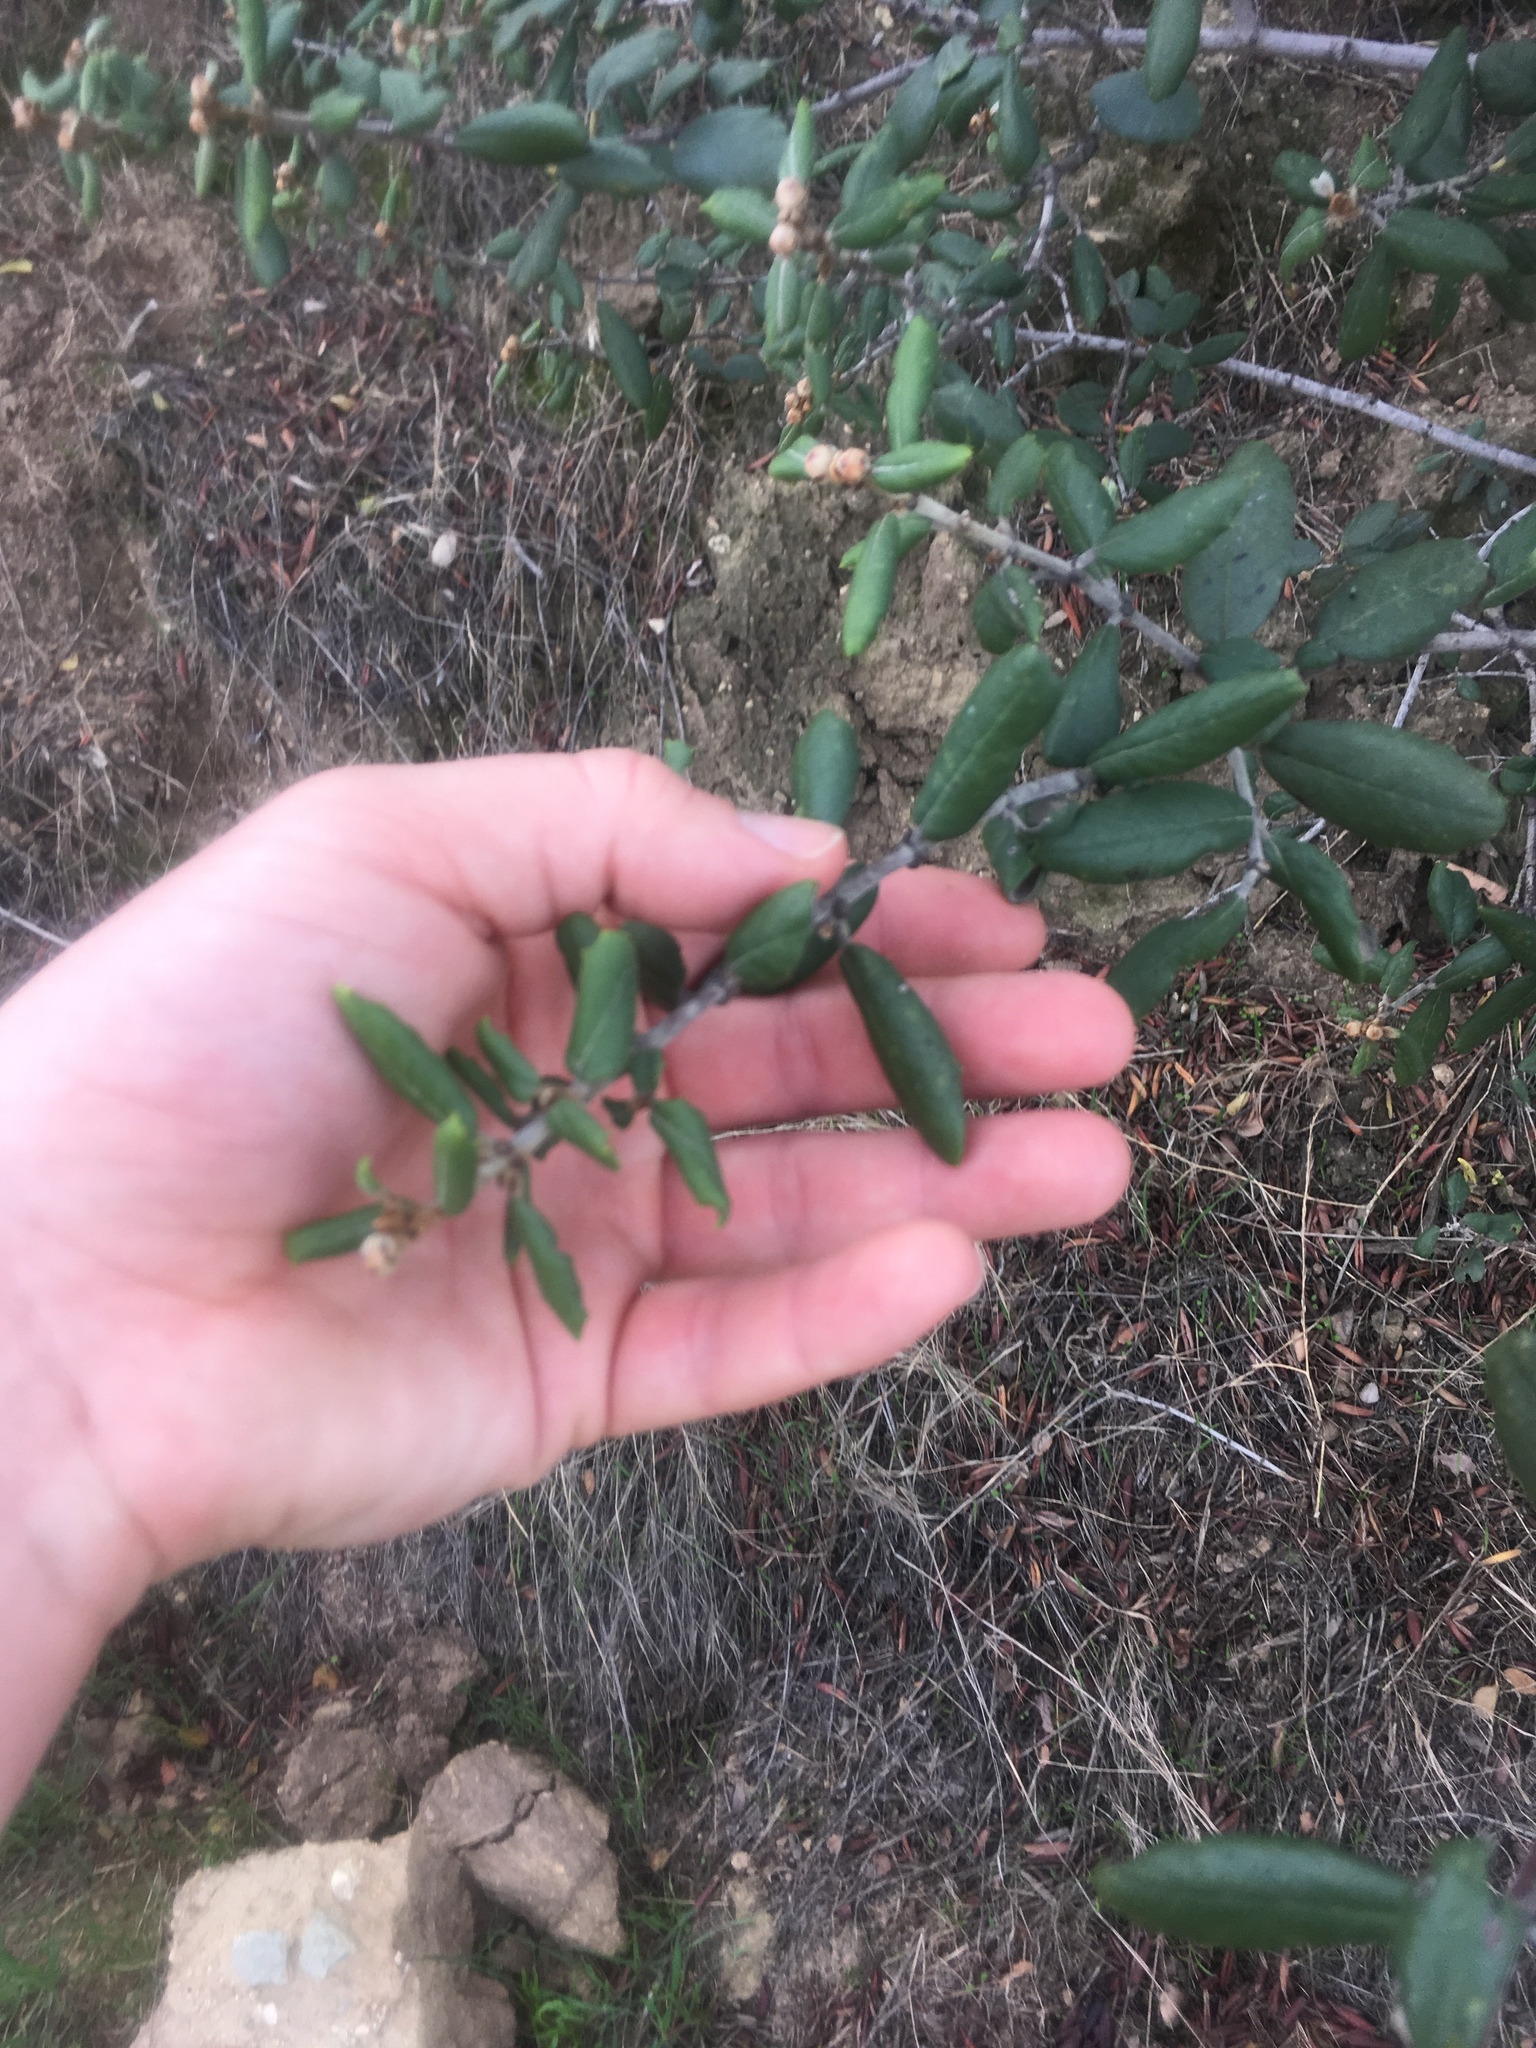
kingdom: Plantae
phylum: Tracheophyta
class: Magnoliopsida
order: Rosales
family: Rhamnaceae
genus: Ceanothus
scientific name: Ceanothus crassifolius
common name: Hoaryleaf ceanothus
